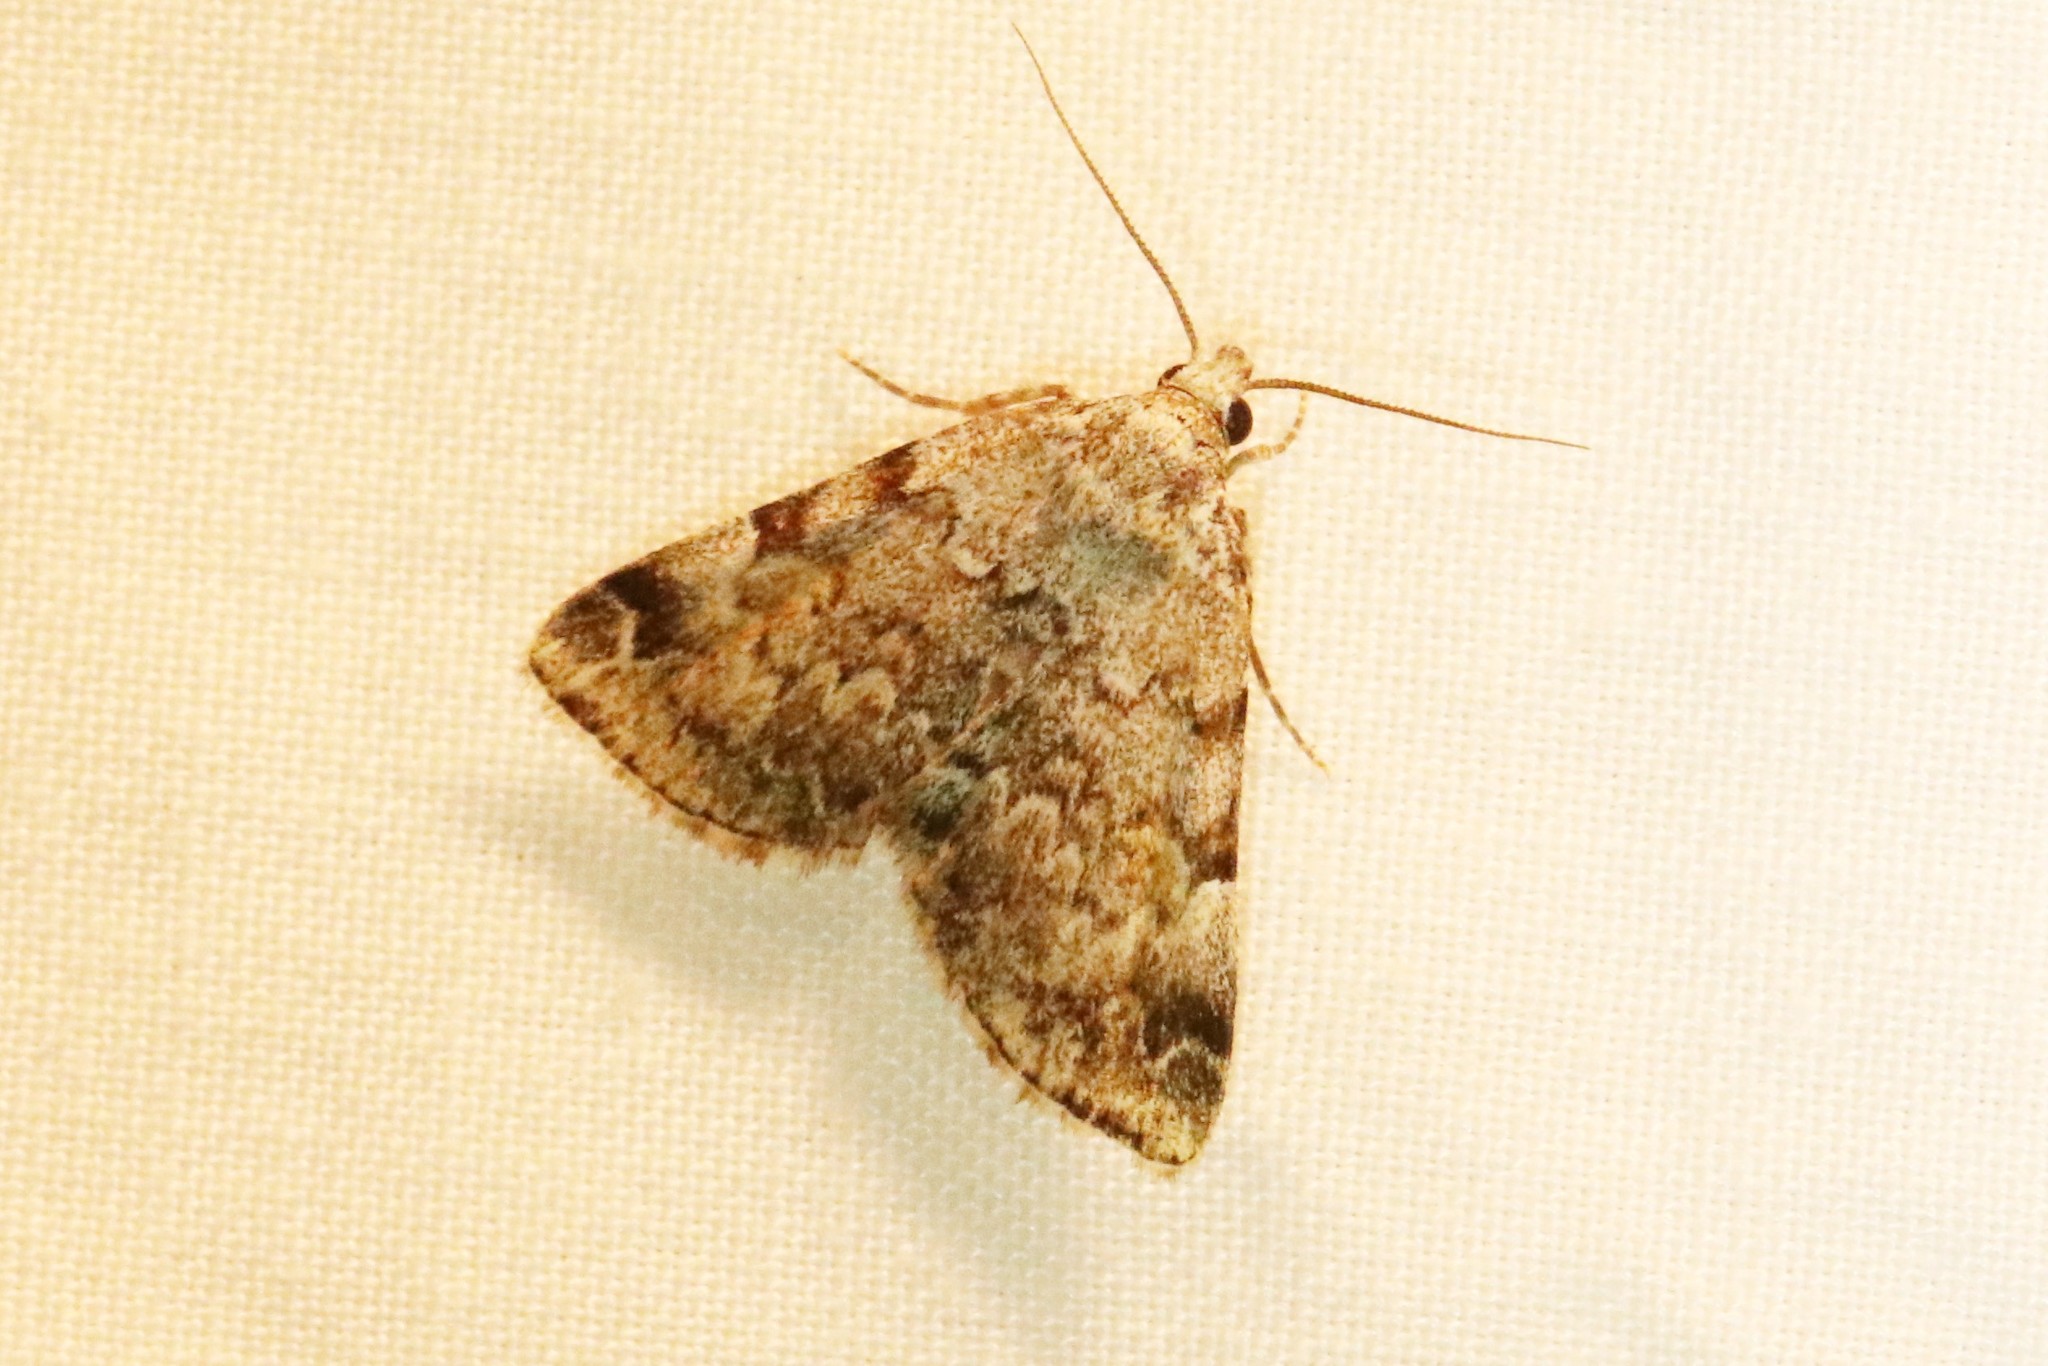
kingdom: Animalia
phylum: Arthropoda
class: Insecta
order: Lepidoptera
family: Erebidae
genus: Idia
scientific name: Idia americalis
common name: American idia moth
